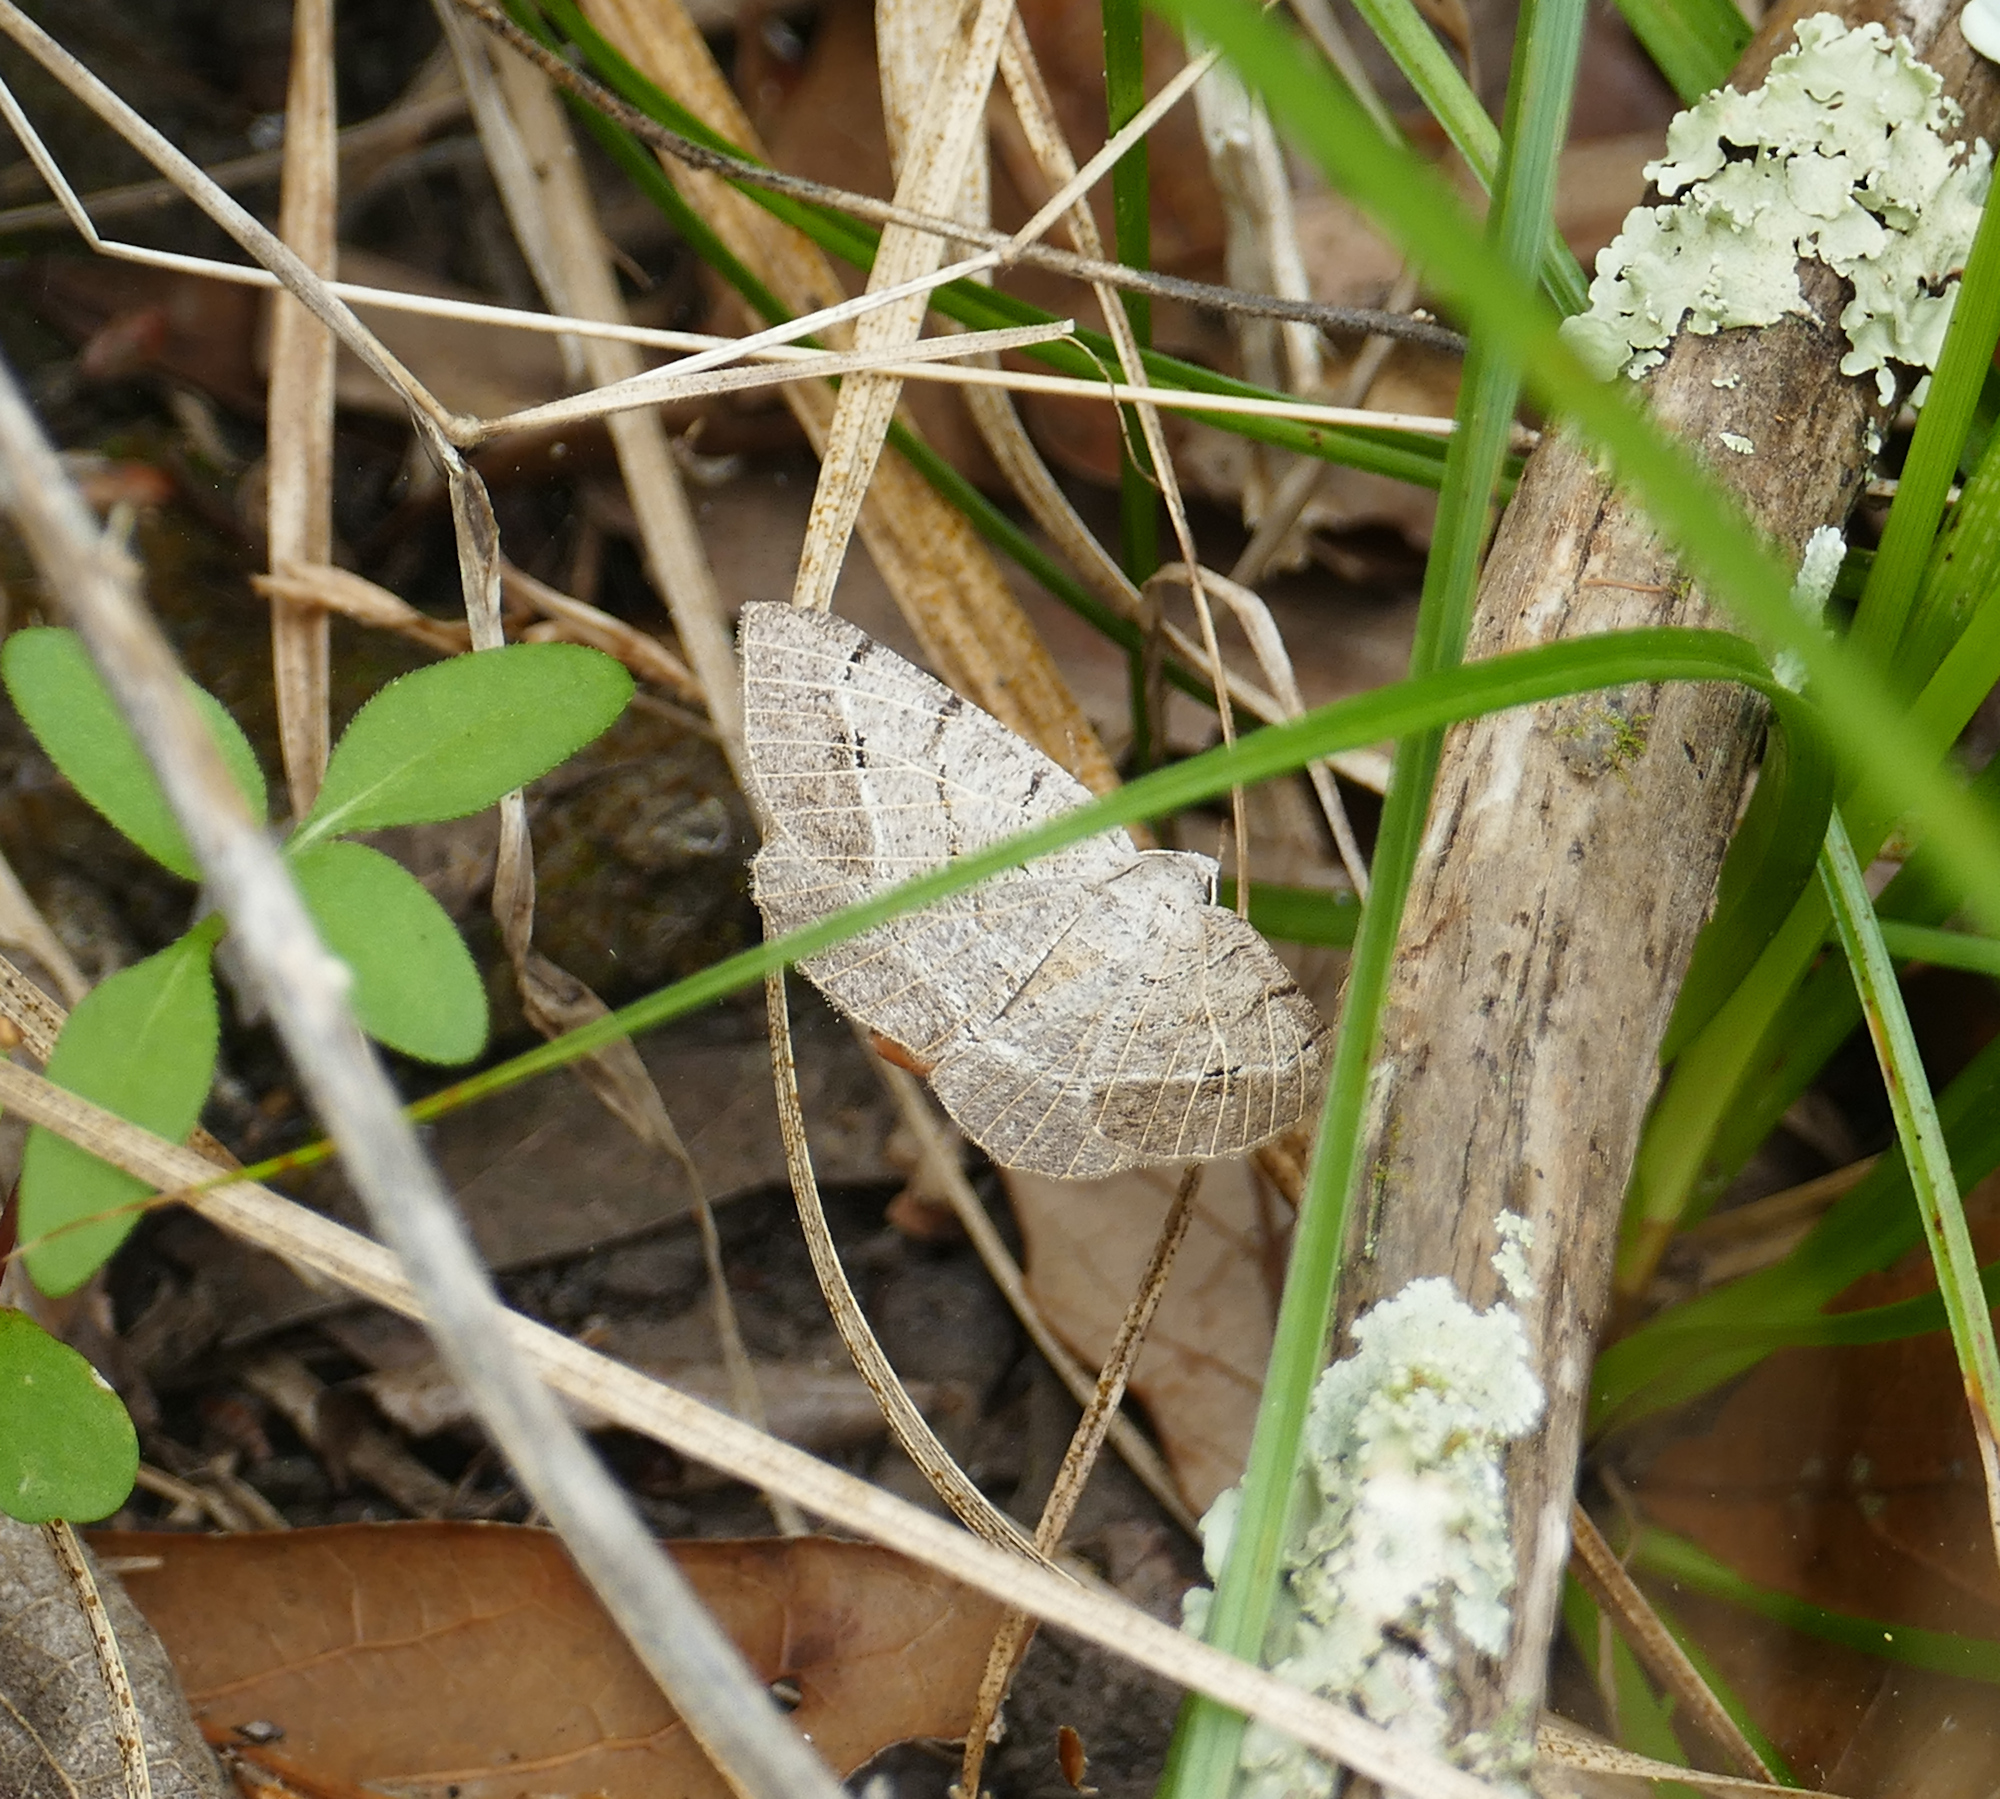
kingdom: Animalia
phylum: Arthropoda
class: Insecta
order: Lepidoptera
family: Geometridae
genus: Isturgia
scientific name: Isturgia dislocaria
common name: Pale-viened enconista
